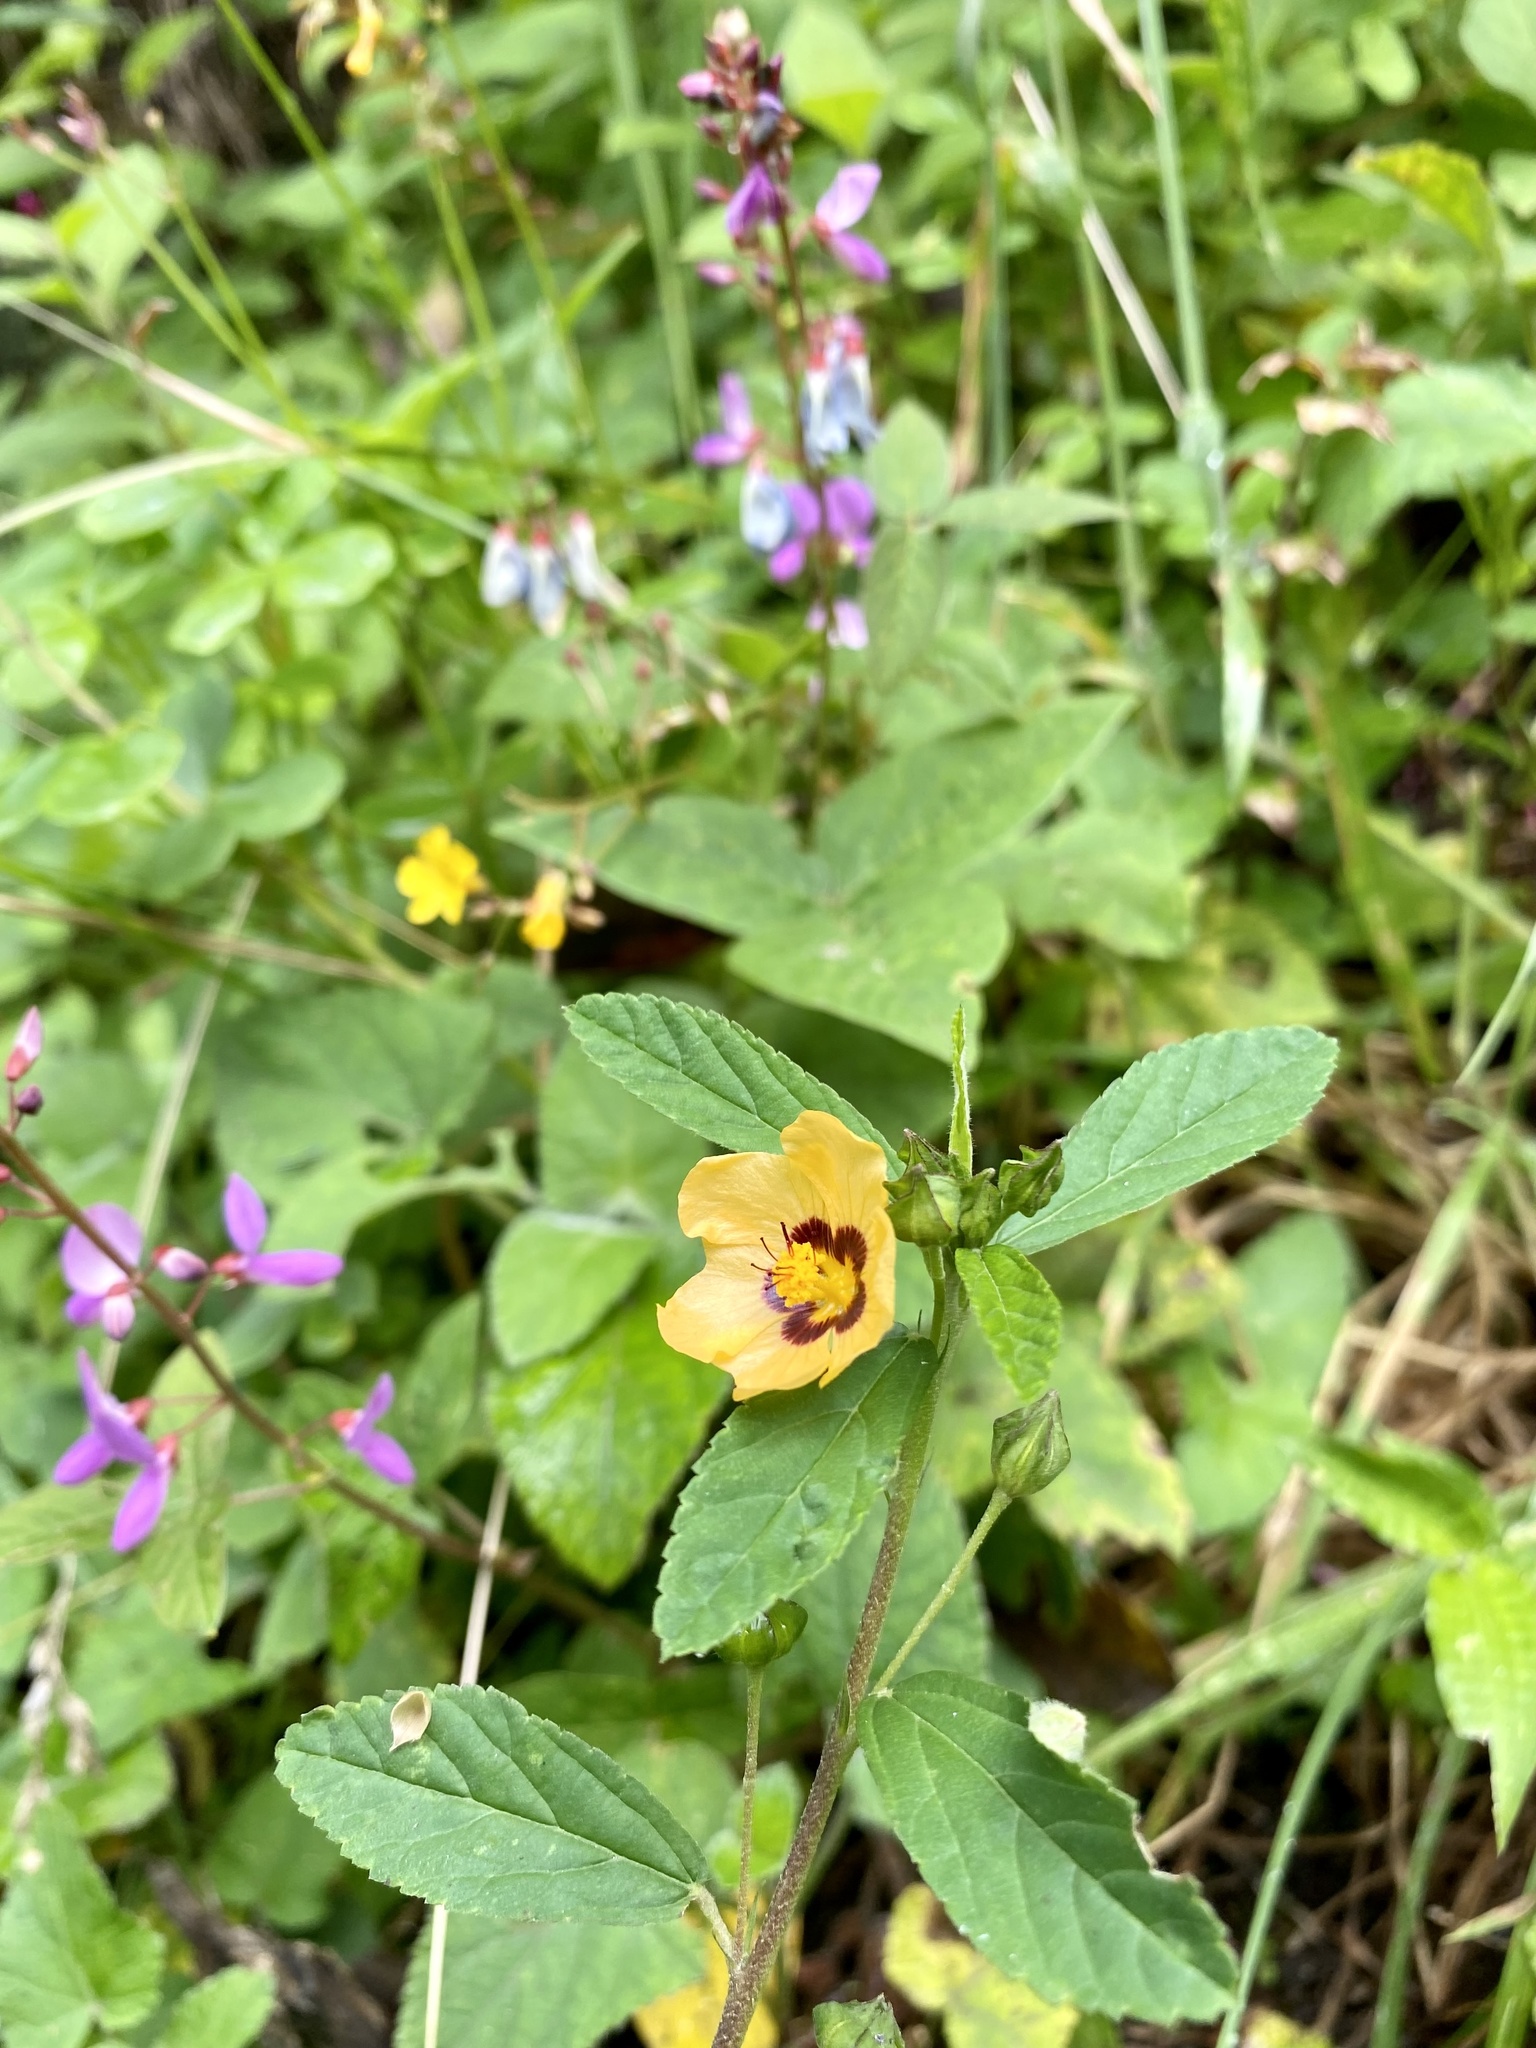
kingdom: Plantae
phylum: Tracheophyta
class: Magnoliopsida
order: Malvales
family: Malvaceae
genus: Sida
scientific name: Sida poeppigiana
